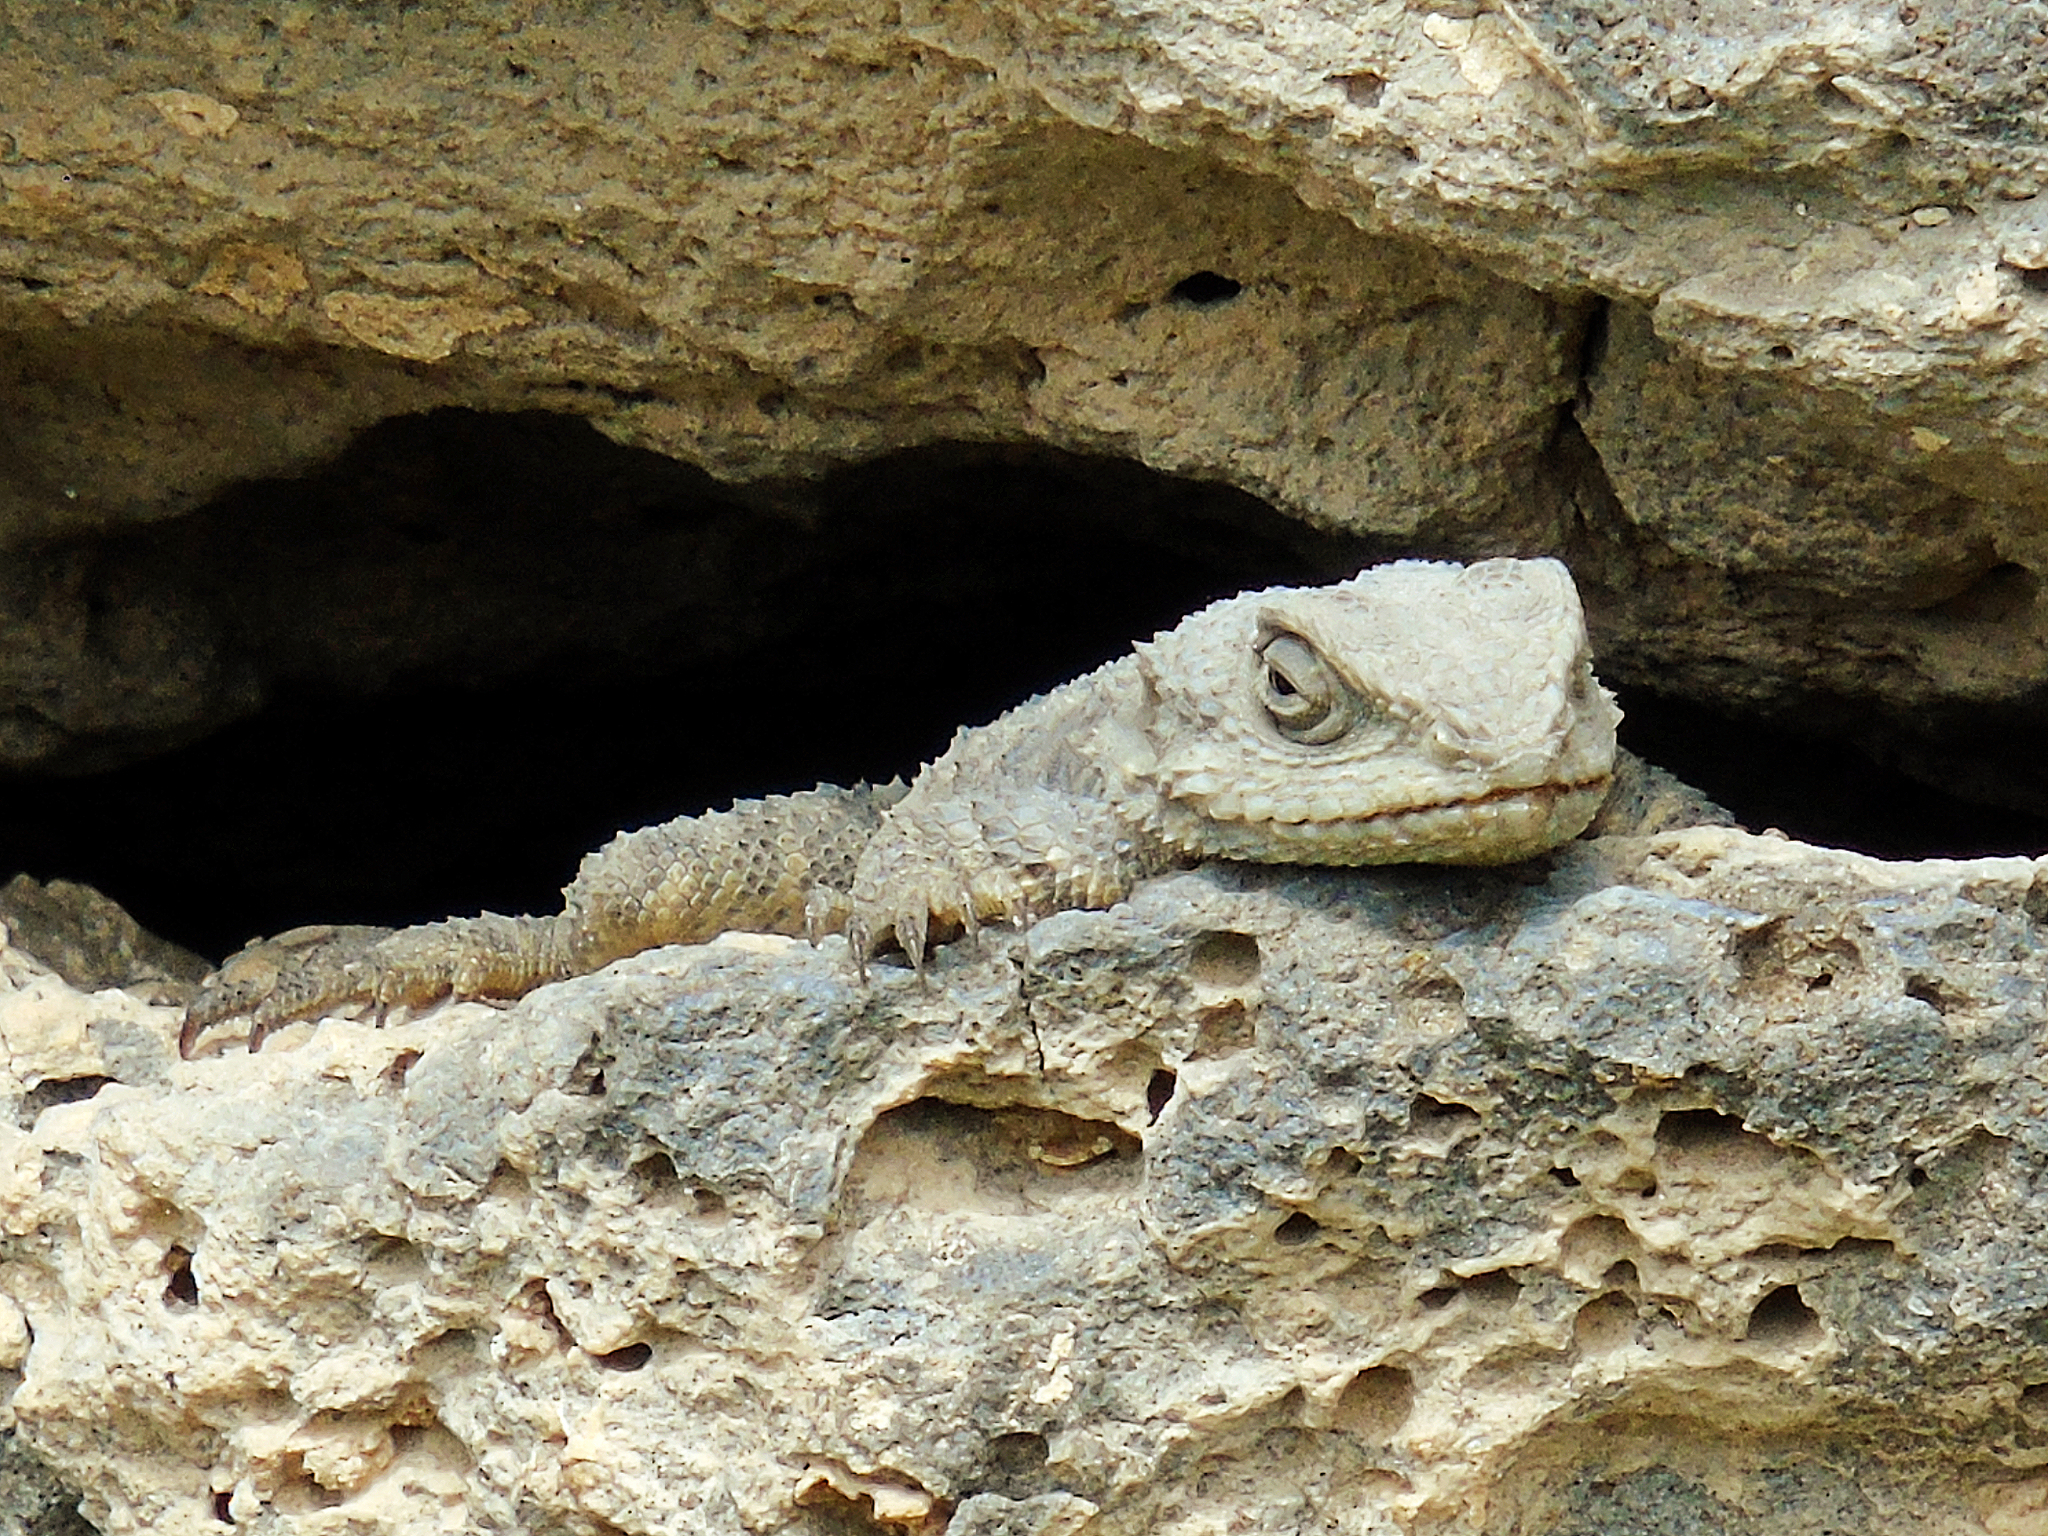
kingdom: Animalia
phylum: Chordata
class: Squamata
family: Agamidae
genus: Stellagama
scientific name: Stellagama stellio
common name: Starred agama
